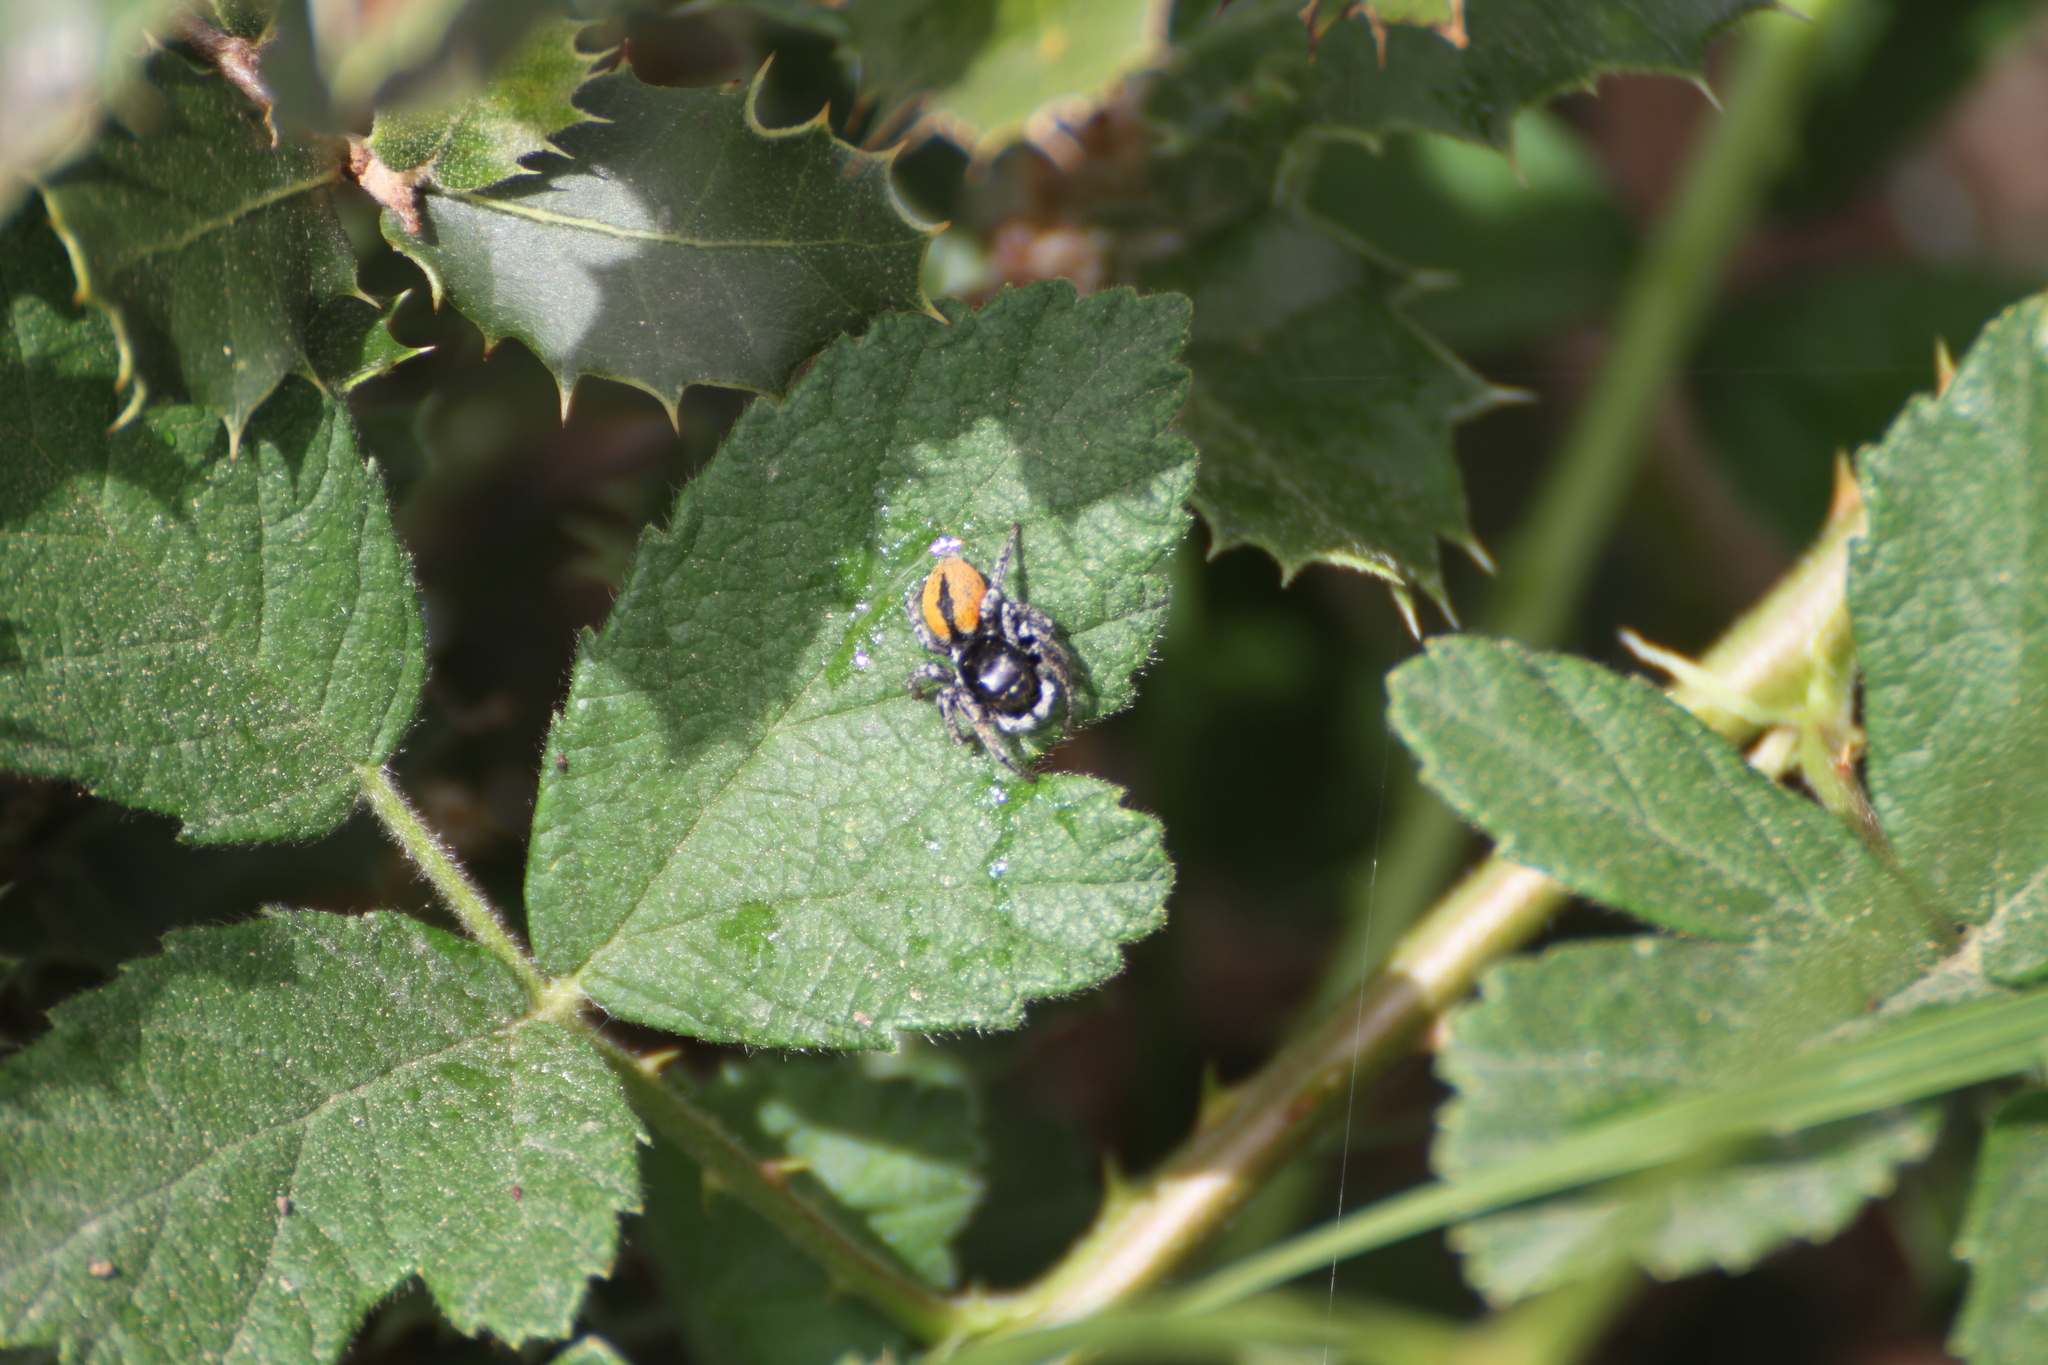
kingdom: Animalia
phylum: Arthropoda
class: Arachnida
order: Araneae
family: Salticidae
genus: Philaeus
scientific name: Philaeus chrysops
